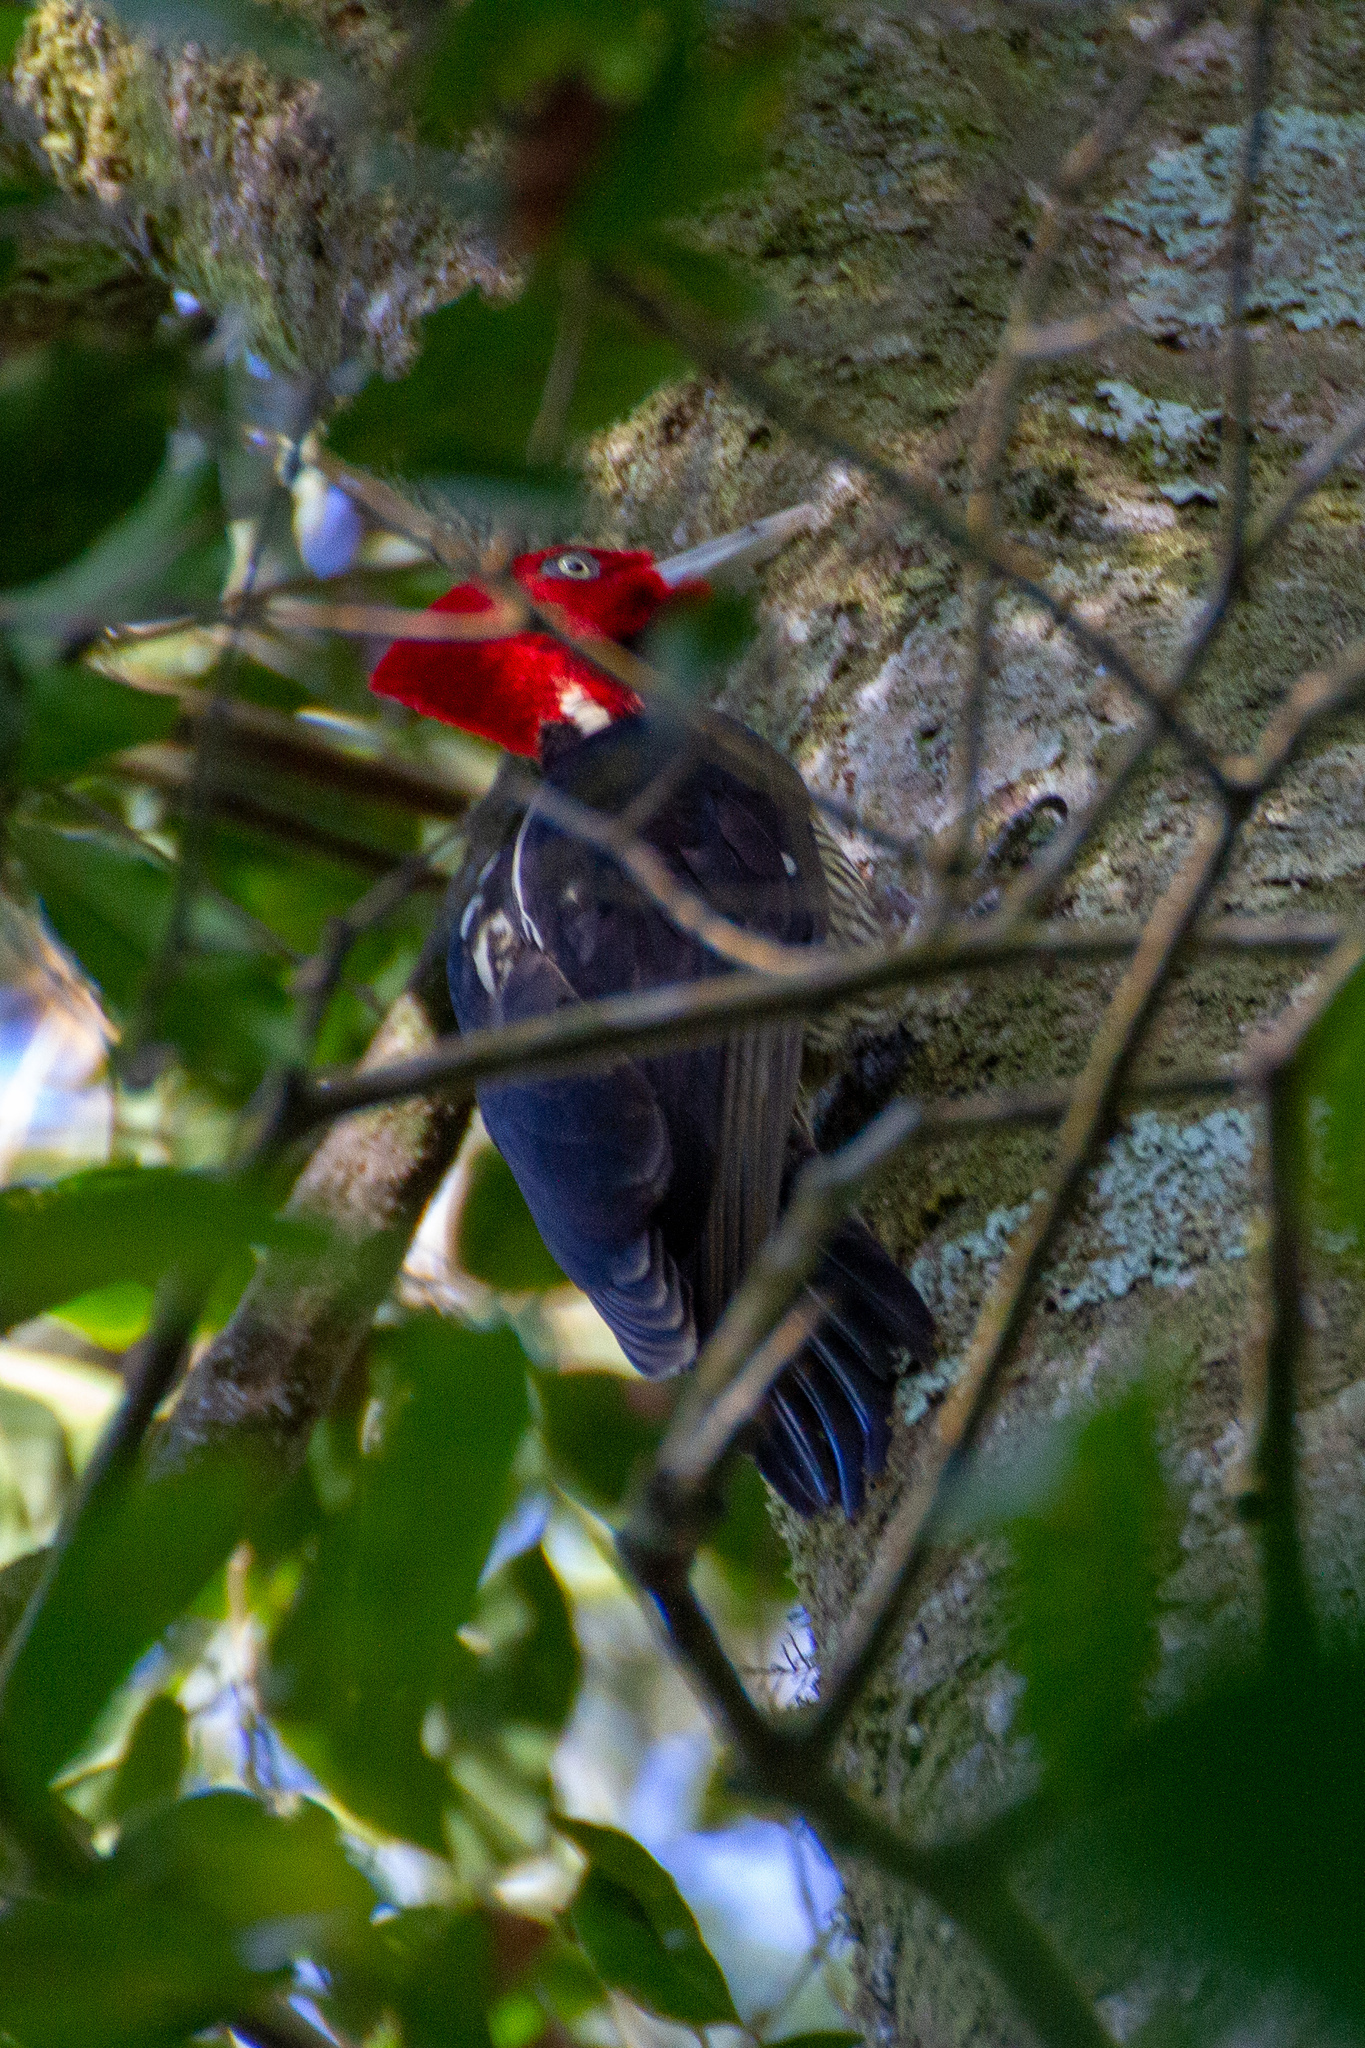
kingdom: Animalia
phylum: Chordata
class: Aves
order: Piciformes
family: Picidae
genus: Campephilus
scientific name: Campephilus guatemalensis
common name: Pale-billed woodpecker
